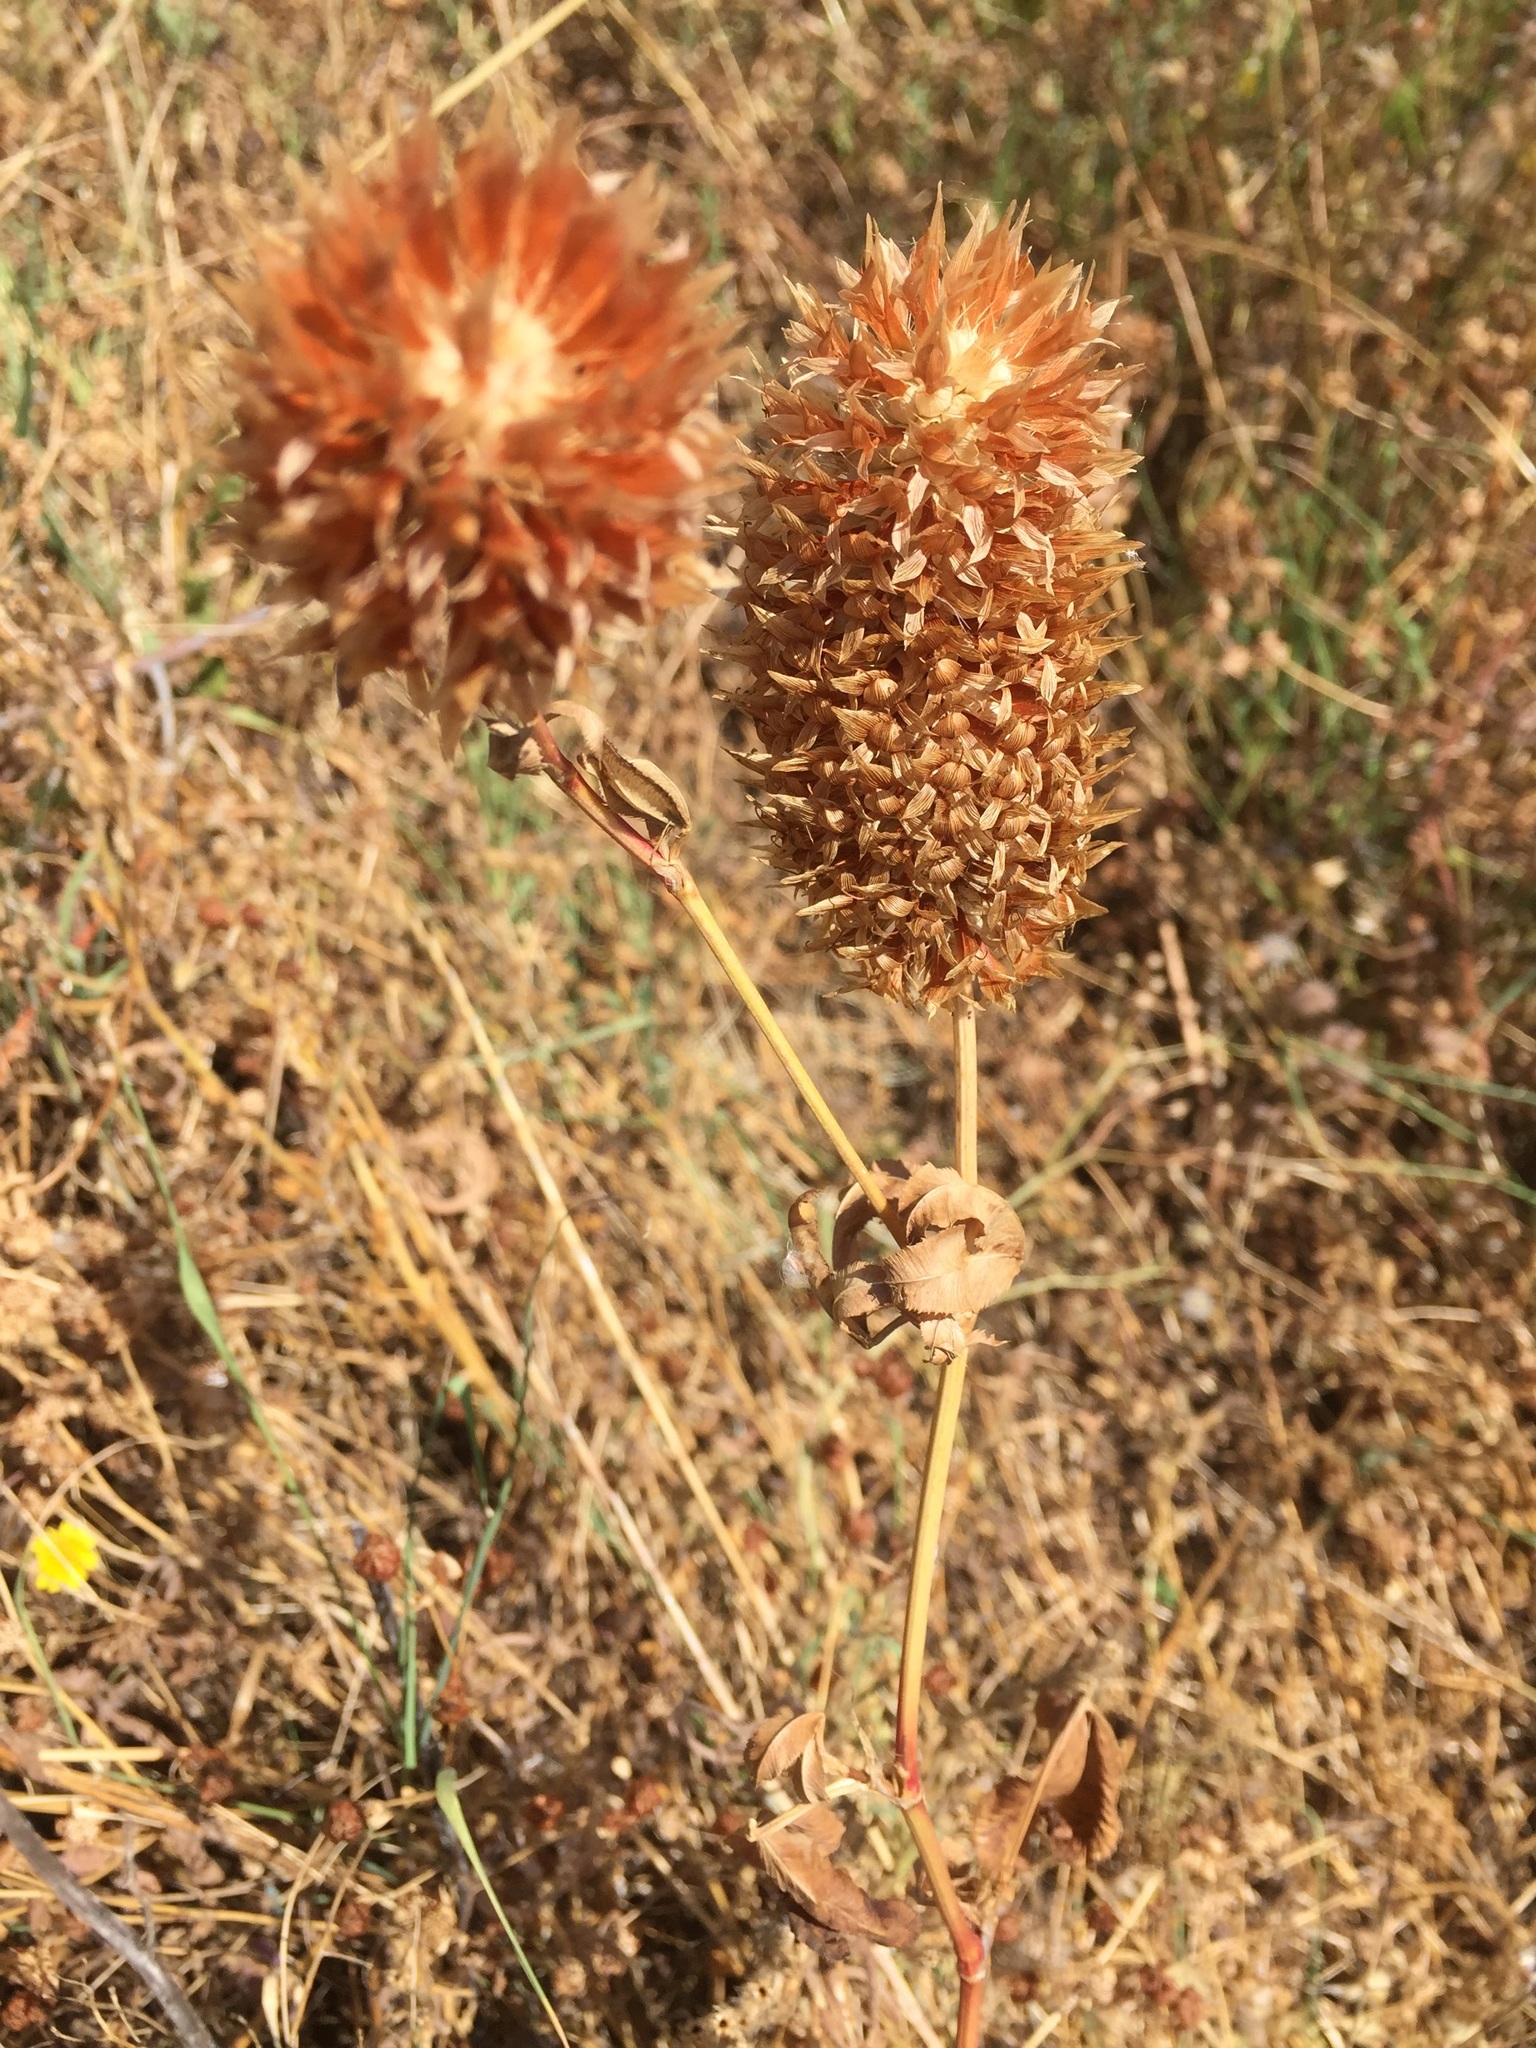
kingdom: Plantae
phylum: Tracheophyta
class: Magnoliopsida
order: Fabales
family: Fabaceae
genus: Trifolium
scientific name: Trifolium vesiculosum
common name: Arrowleaf clover
